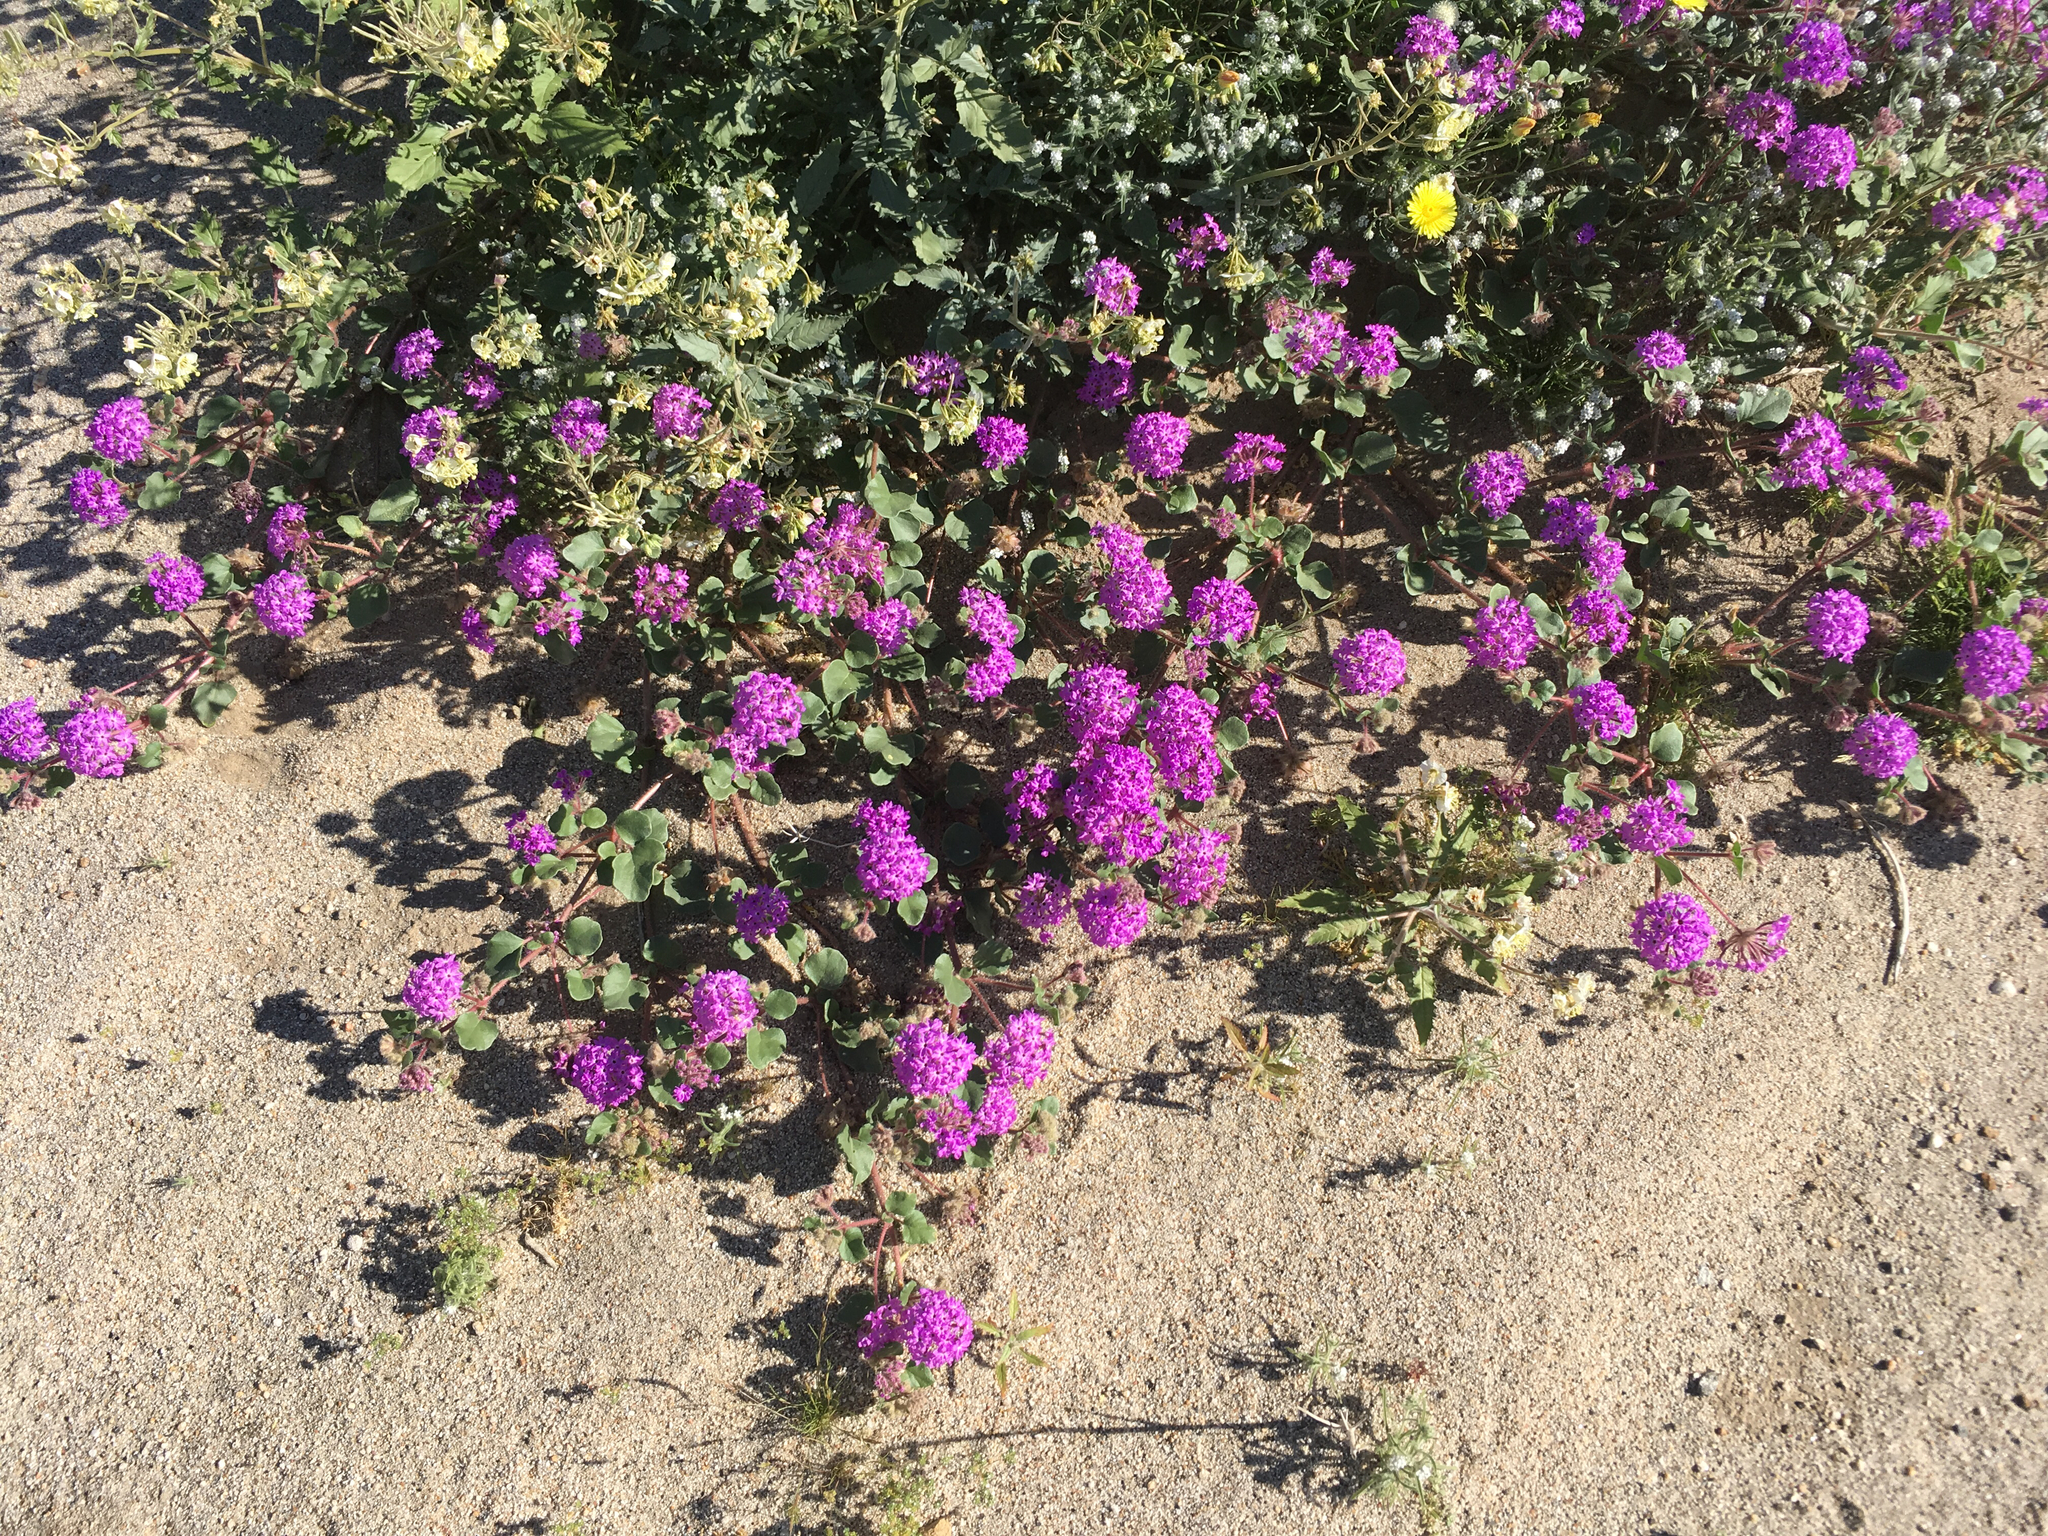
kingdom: Plantae
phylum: Tracheophyta
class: Magnoliopsida
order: Caryophyllales
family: Nyctaginaceae
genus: Abronia
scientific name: Abronia villosa
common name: Desert sand-verbena
